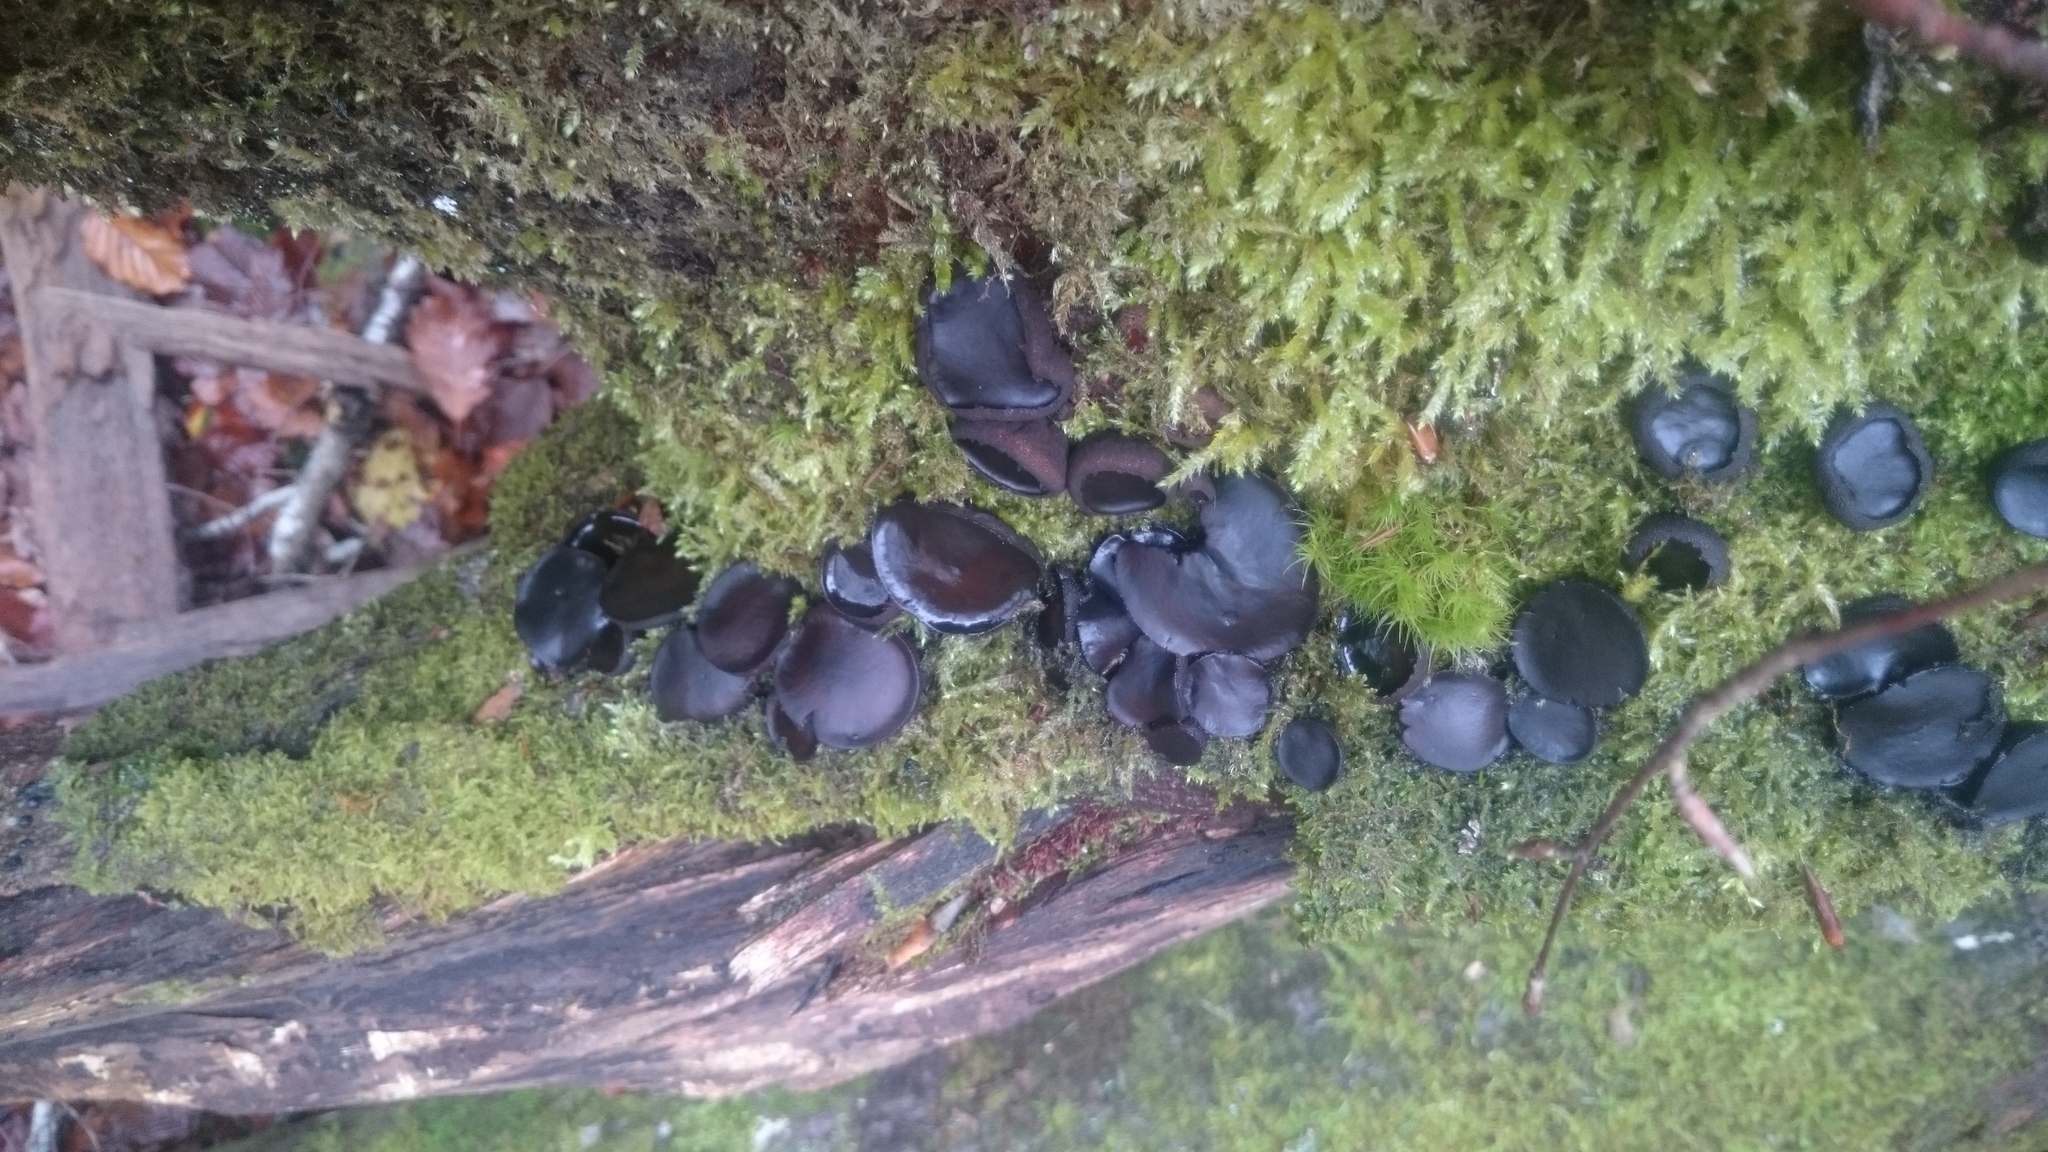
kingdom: Fungi
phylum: Ascomycota
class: Leotiomycetes
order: Phacidiales
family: Phacidiaceae
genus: Bulgaria
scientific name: Bulgaria inquinans
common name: Black bulgar
